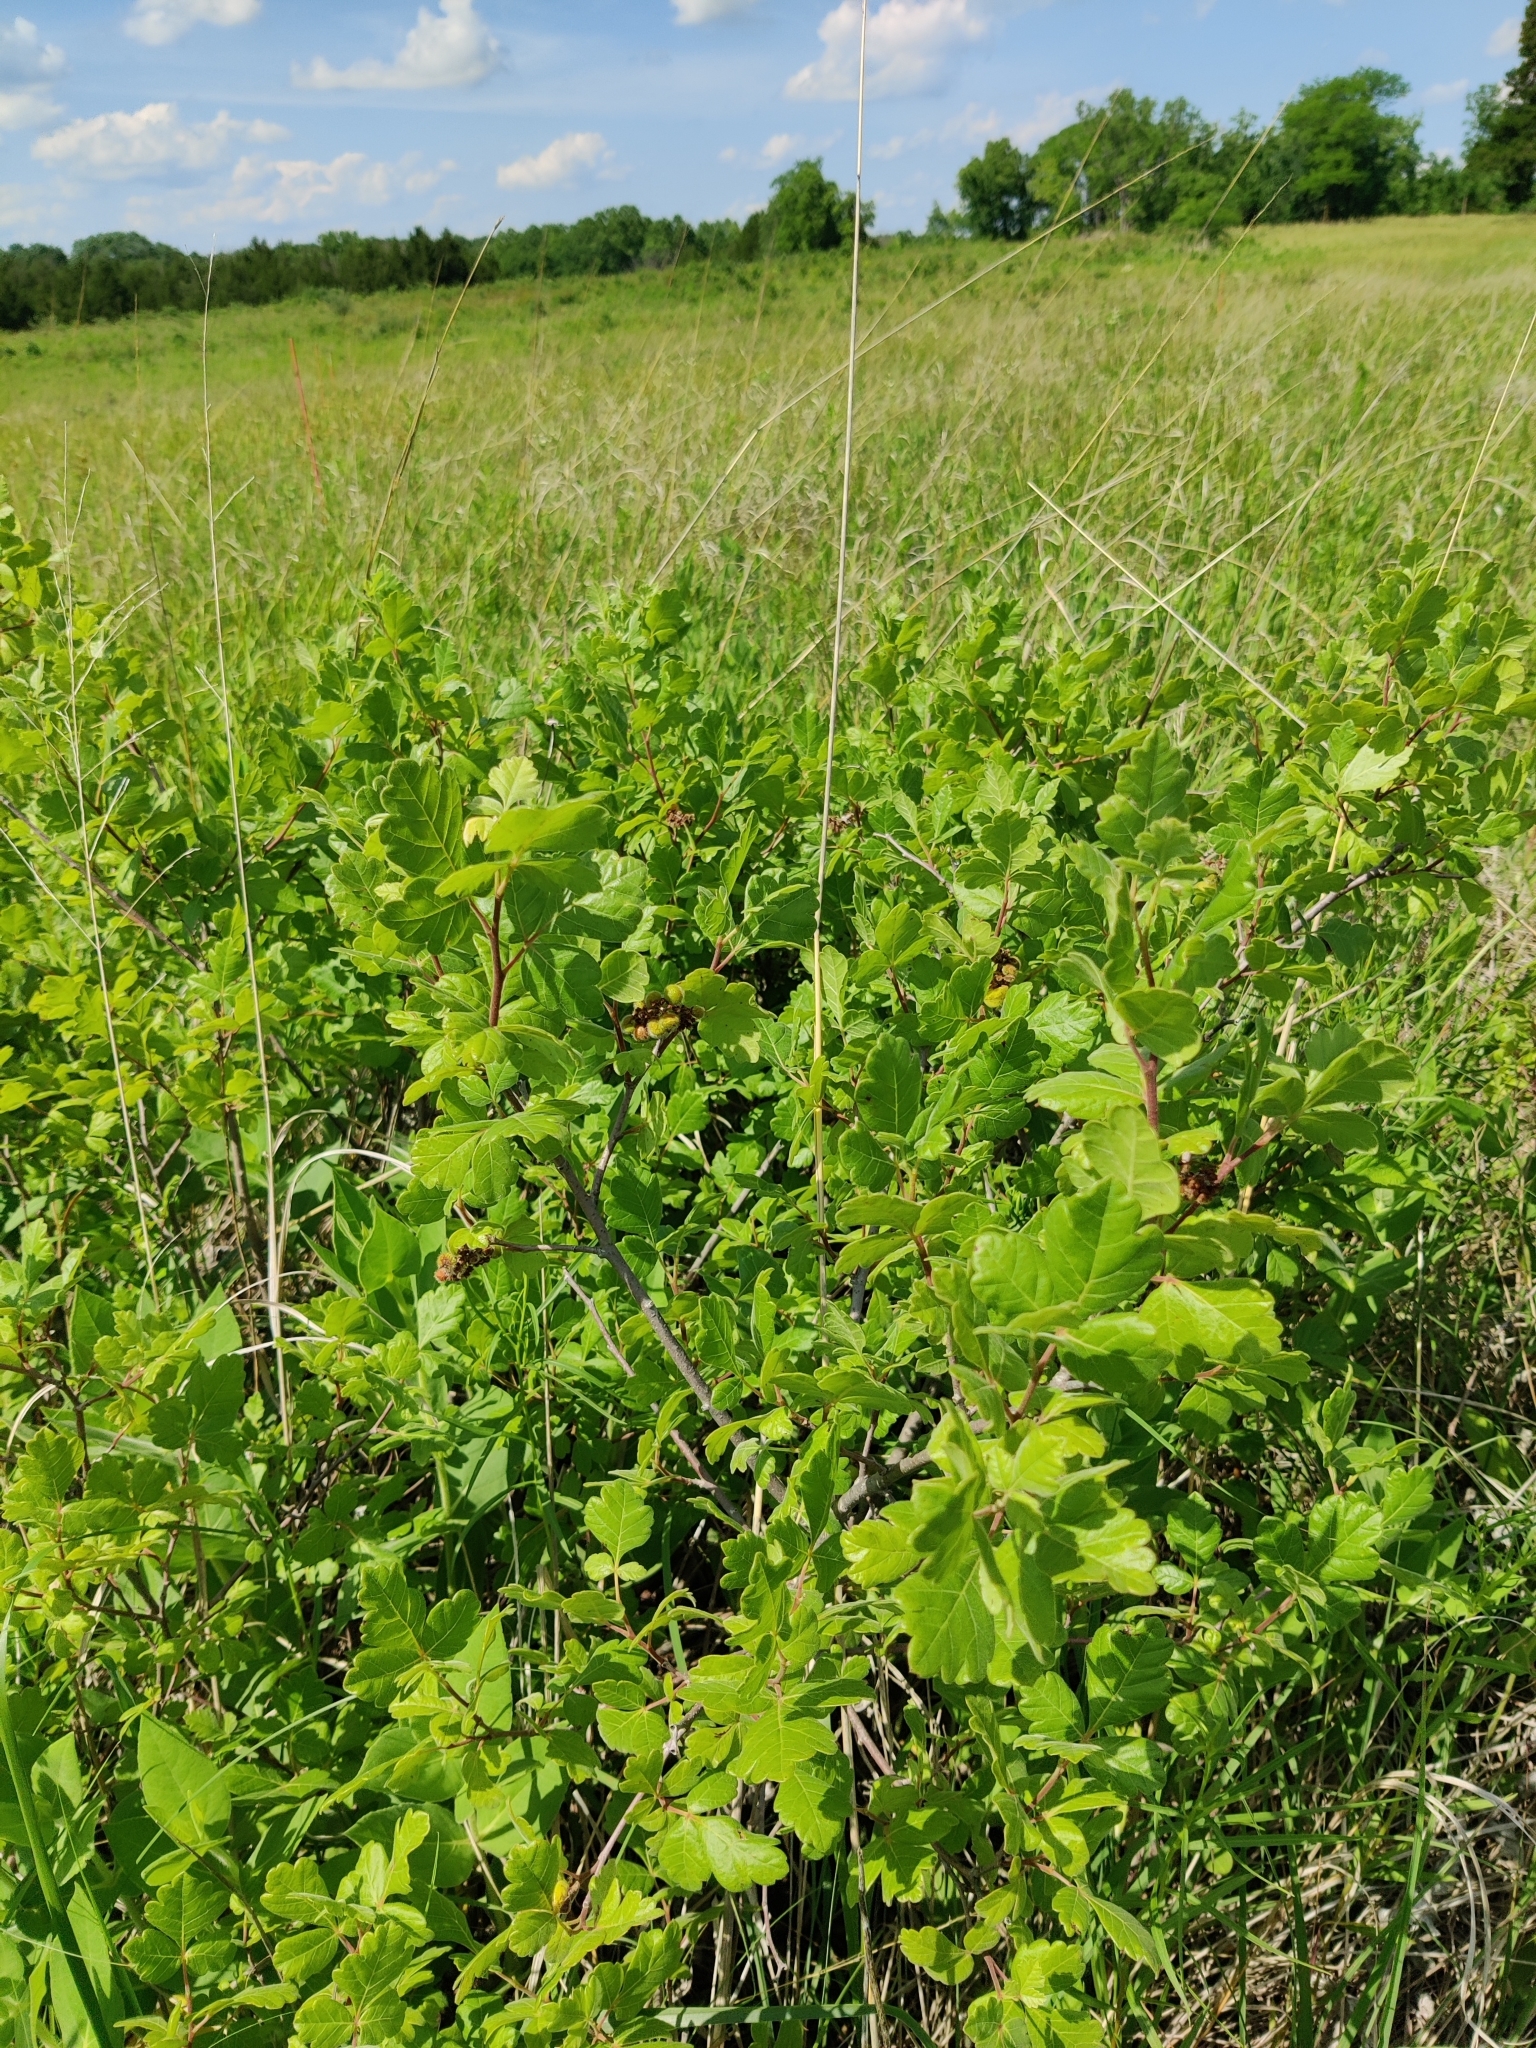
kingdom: Plantae
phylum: Tracheophyta
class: Magnoliopsida
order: Sapindales
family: Anacardiaceae
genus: Rhus
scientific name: Rhus aromatica
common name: Aromatic sumac
